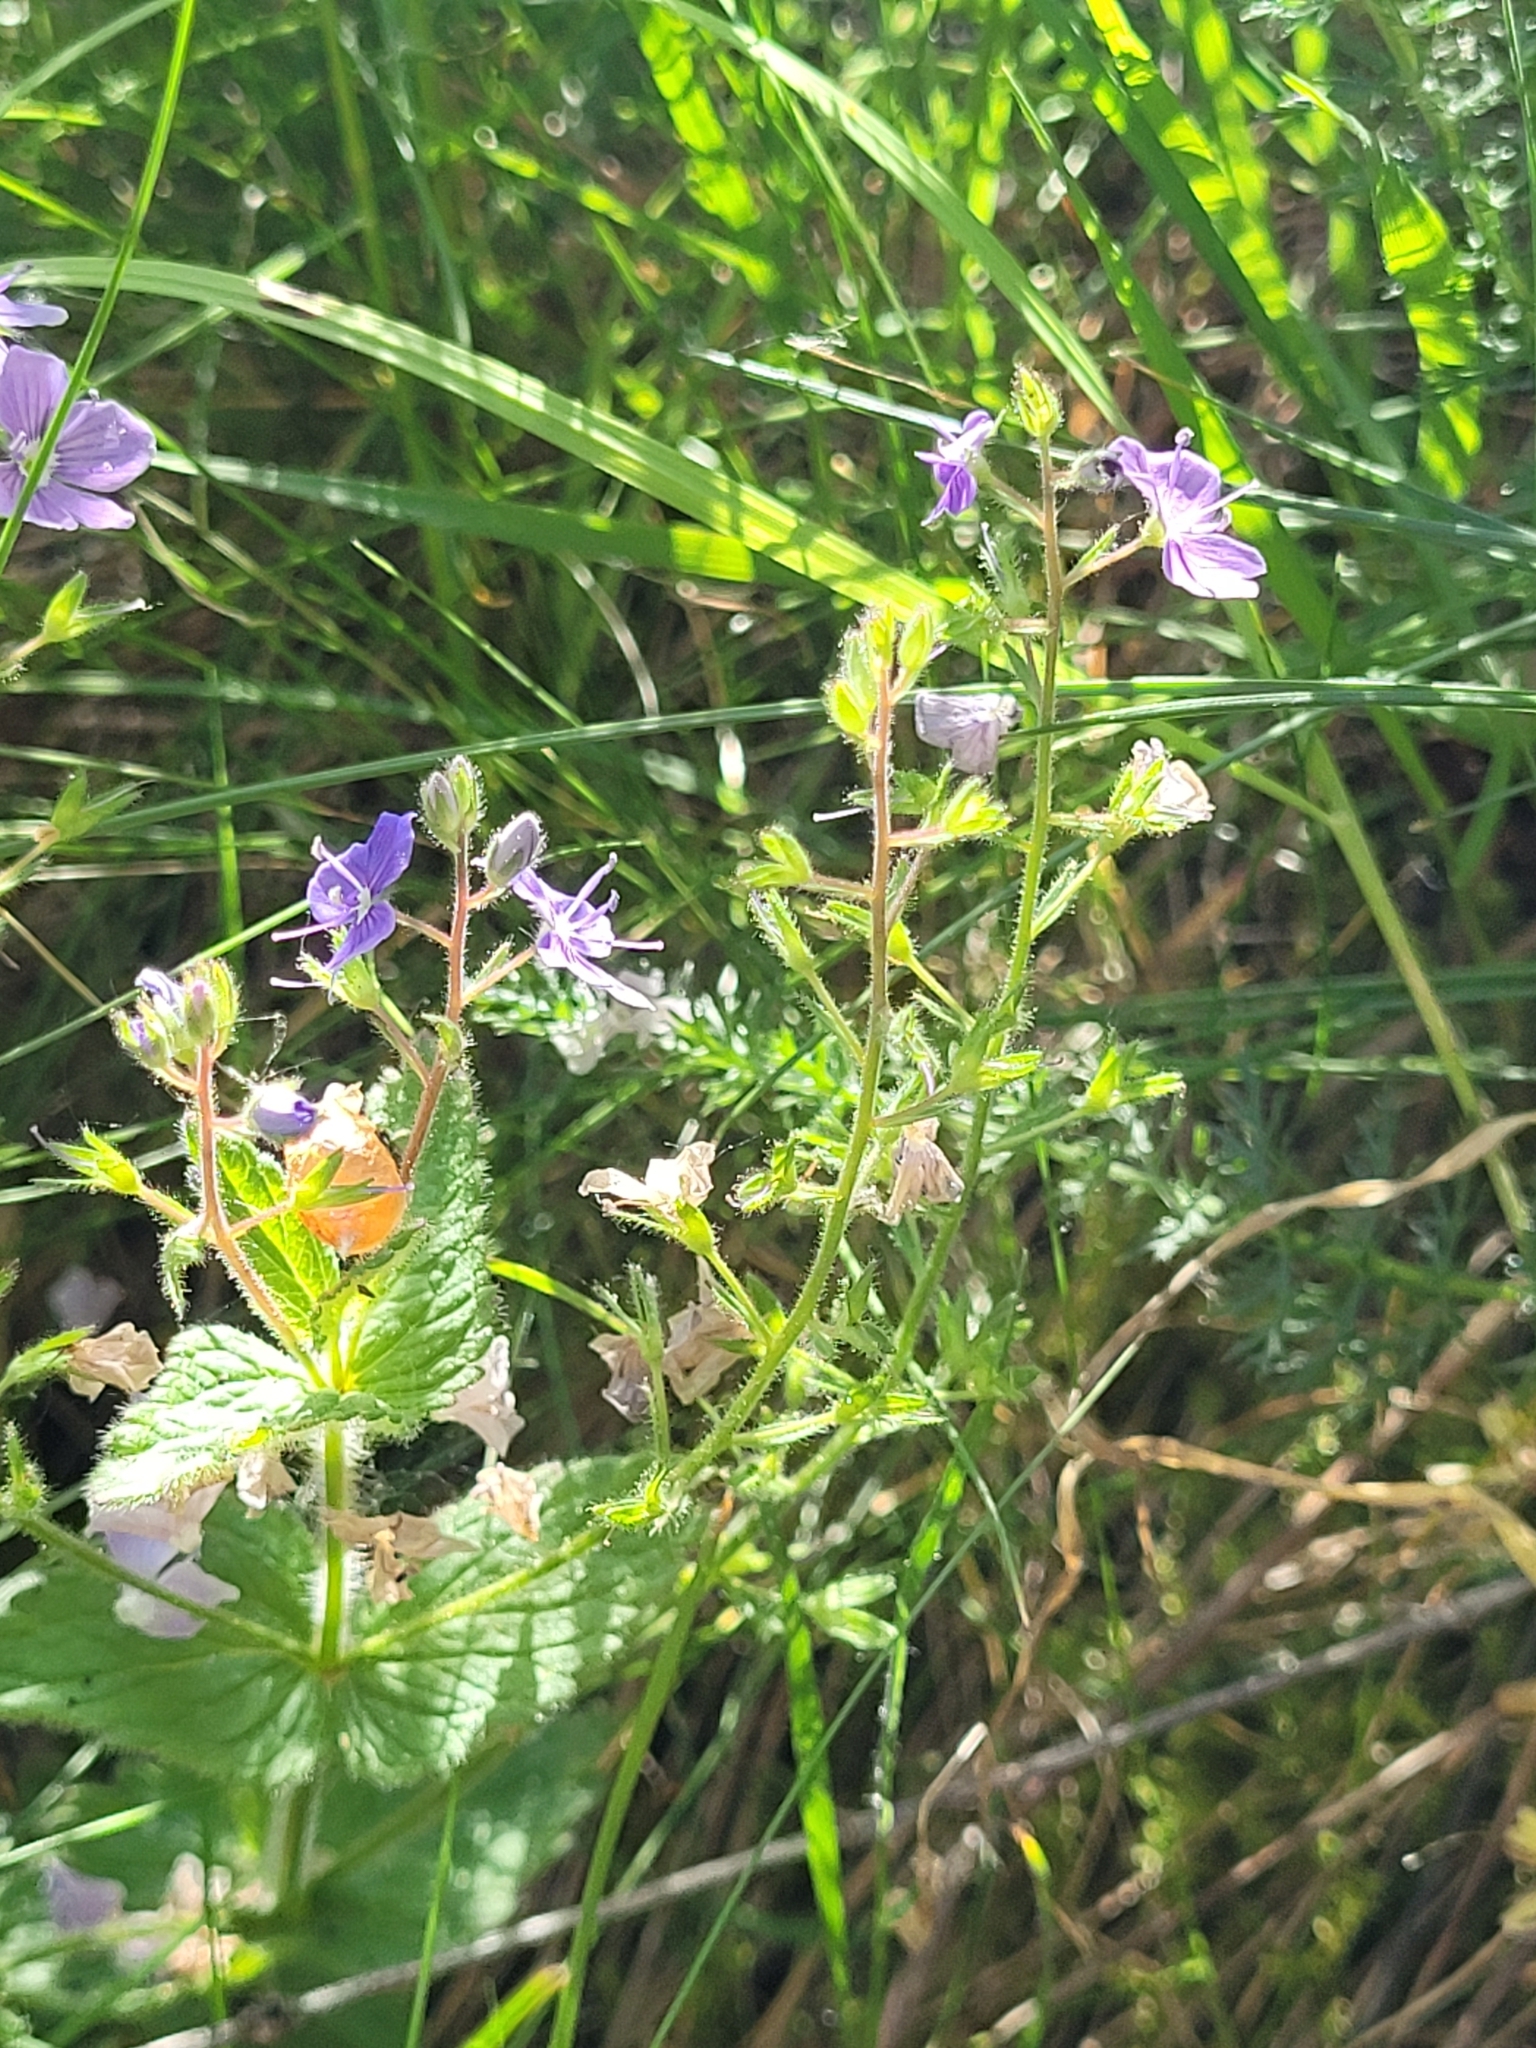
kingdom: Plantae
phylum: Tracheophyta
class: Magnoliopsida
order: Lamiales
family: Plantaginaceae
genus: Veronica
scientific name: Veronica chamaedrys
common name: Germander speedwell
